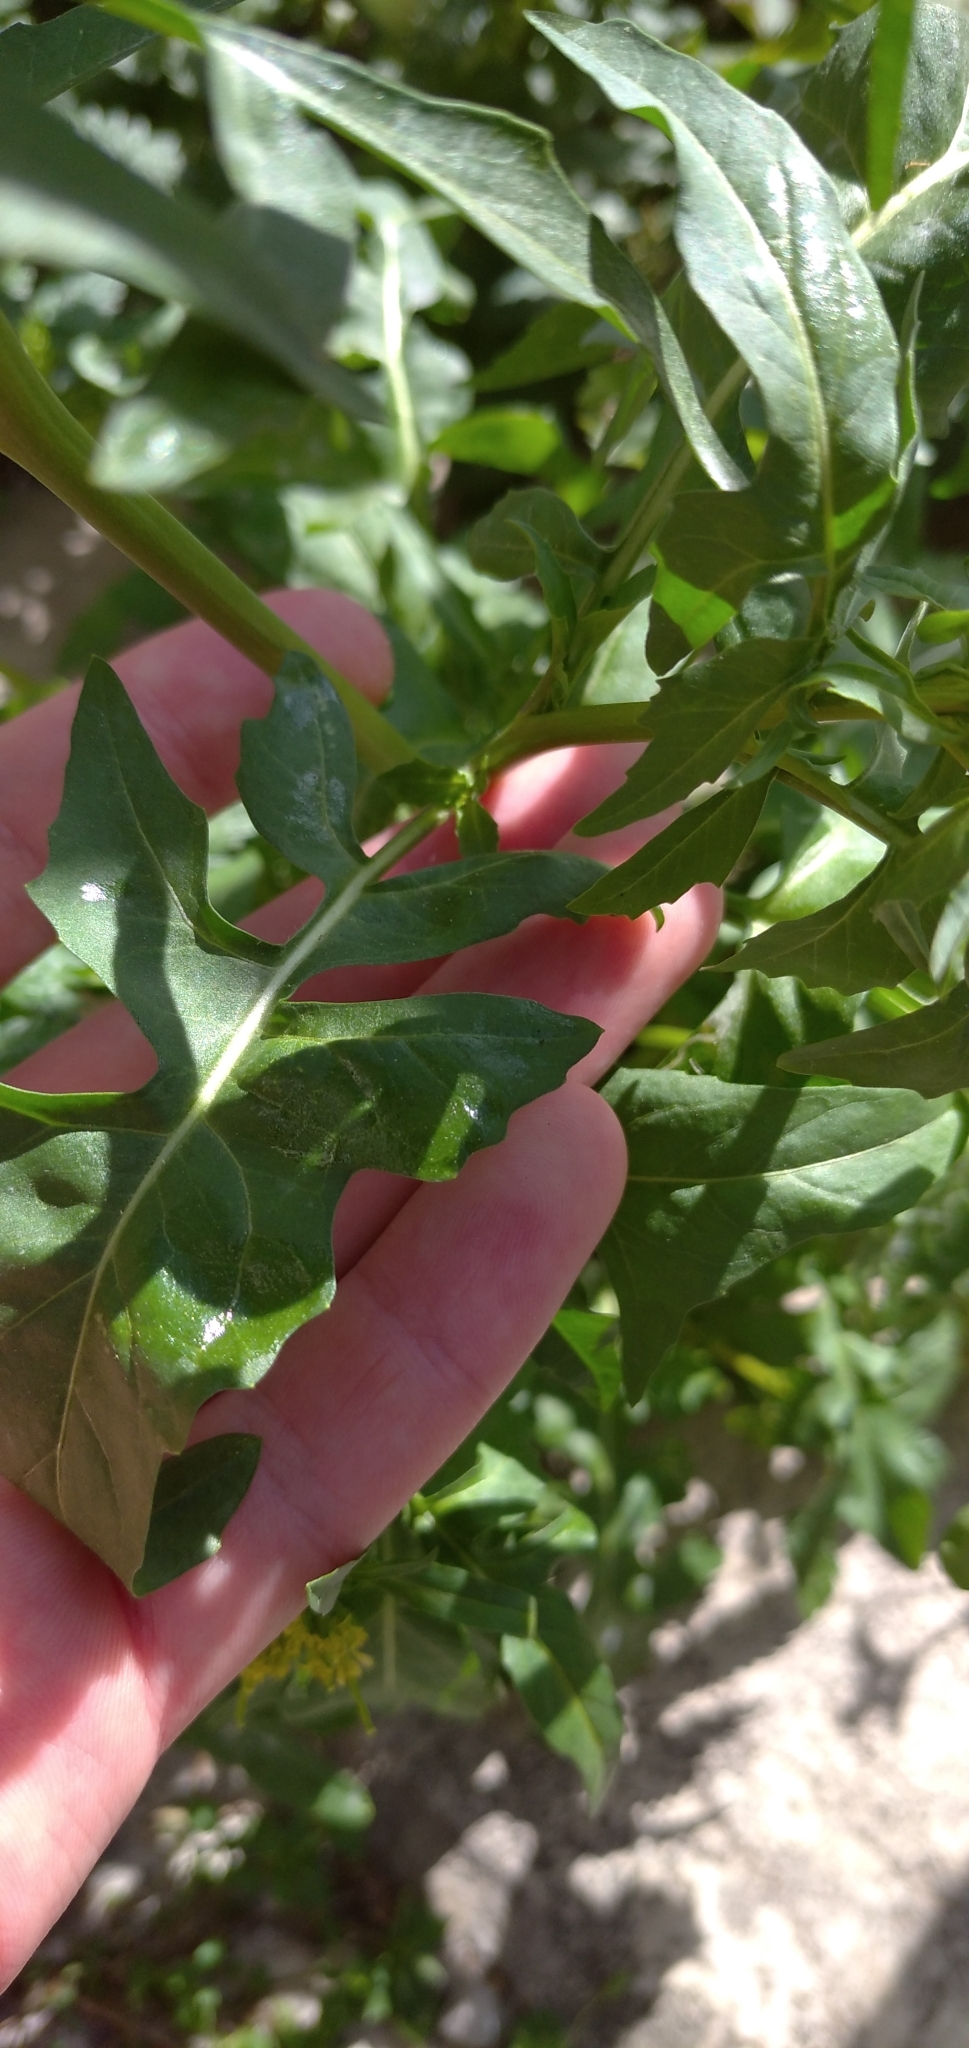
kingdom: Plantae
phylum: Tracheophyta
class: Magnoliopsida
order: Brassicales
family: Brassicaceae
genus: Sisymbrium
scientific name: Sisymbrium irio
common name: London rocket
